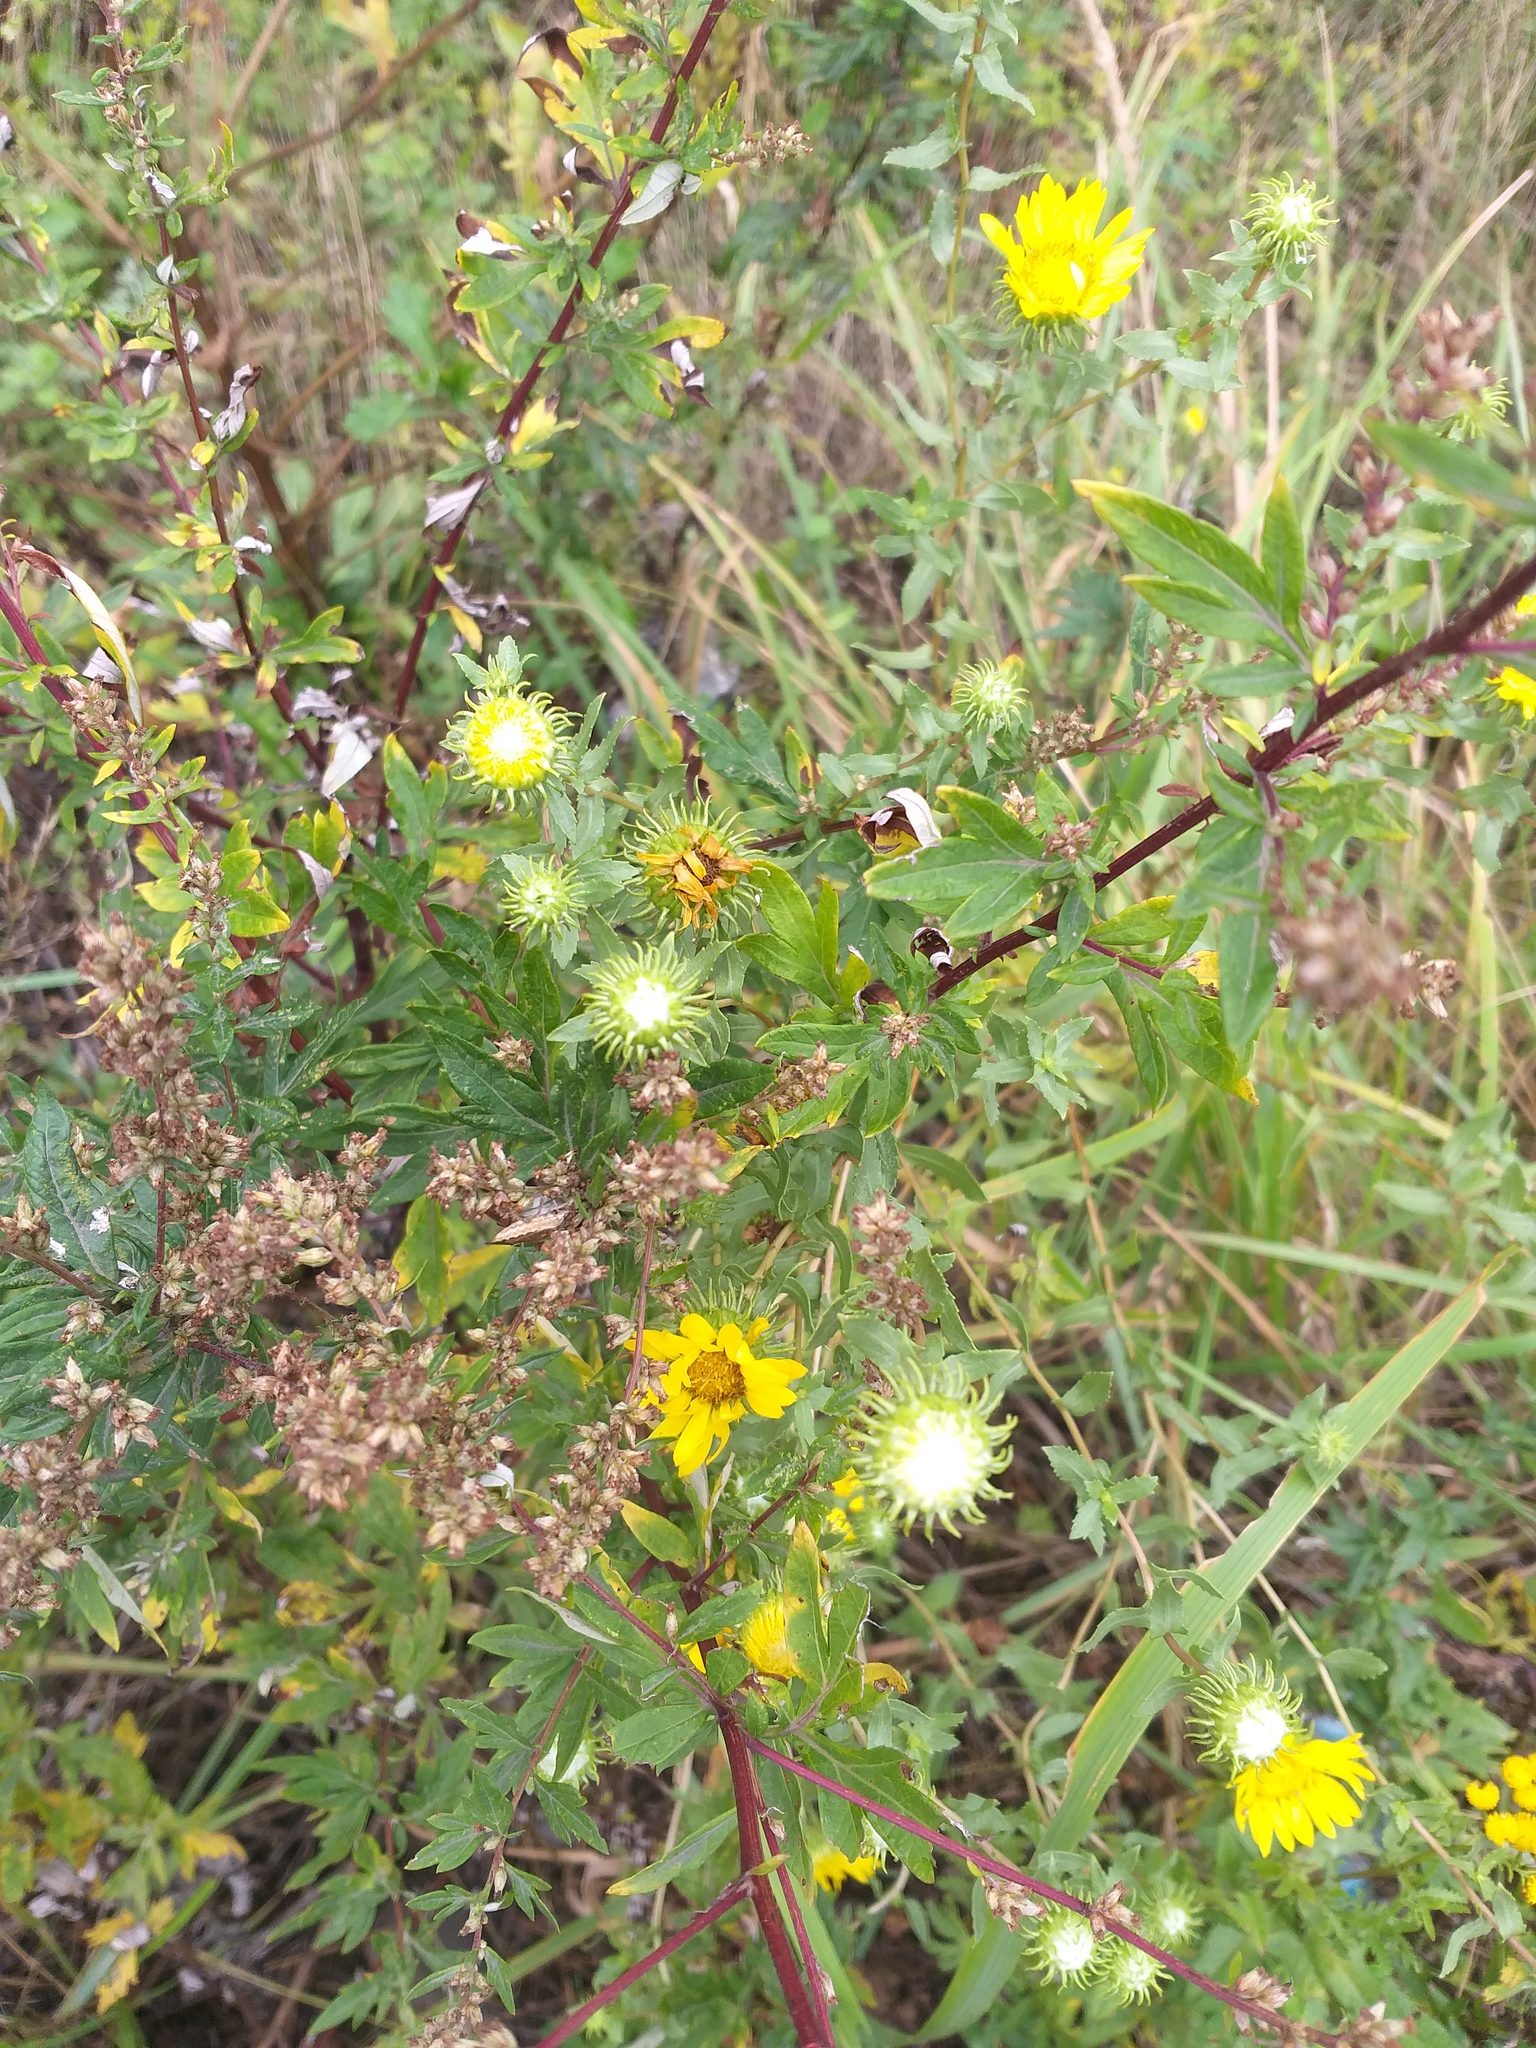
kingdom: Plantae
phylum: Tracheophyta
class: Magnoliopsida
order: Asterales
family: Asteraceae
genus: Grindelia
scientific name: Grindelia squarrosa
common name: Curly-cup gumweed
